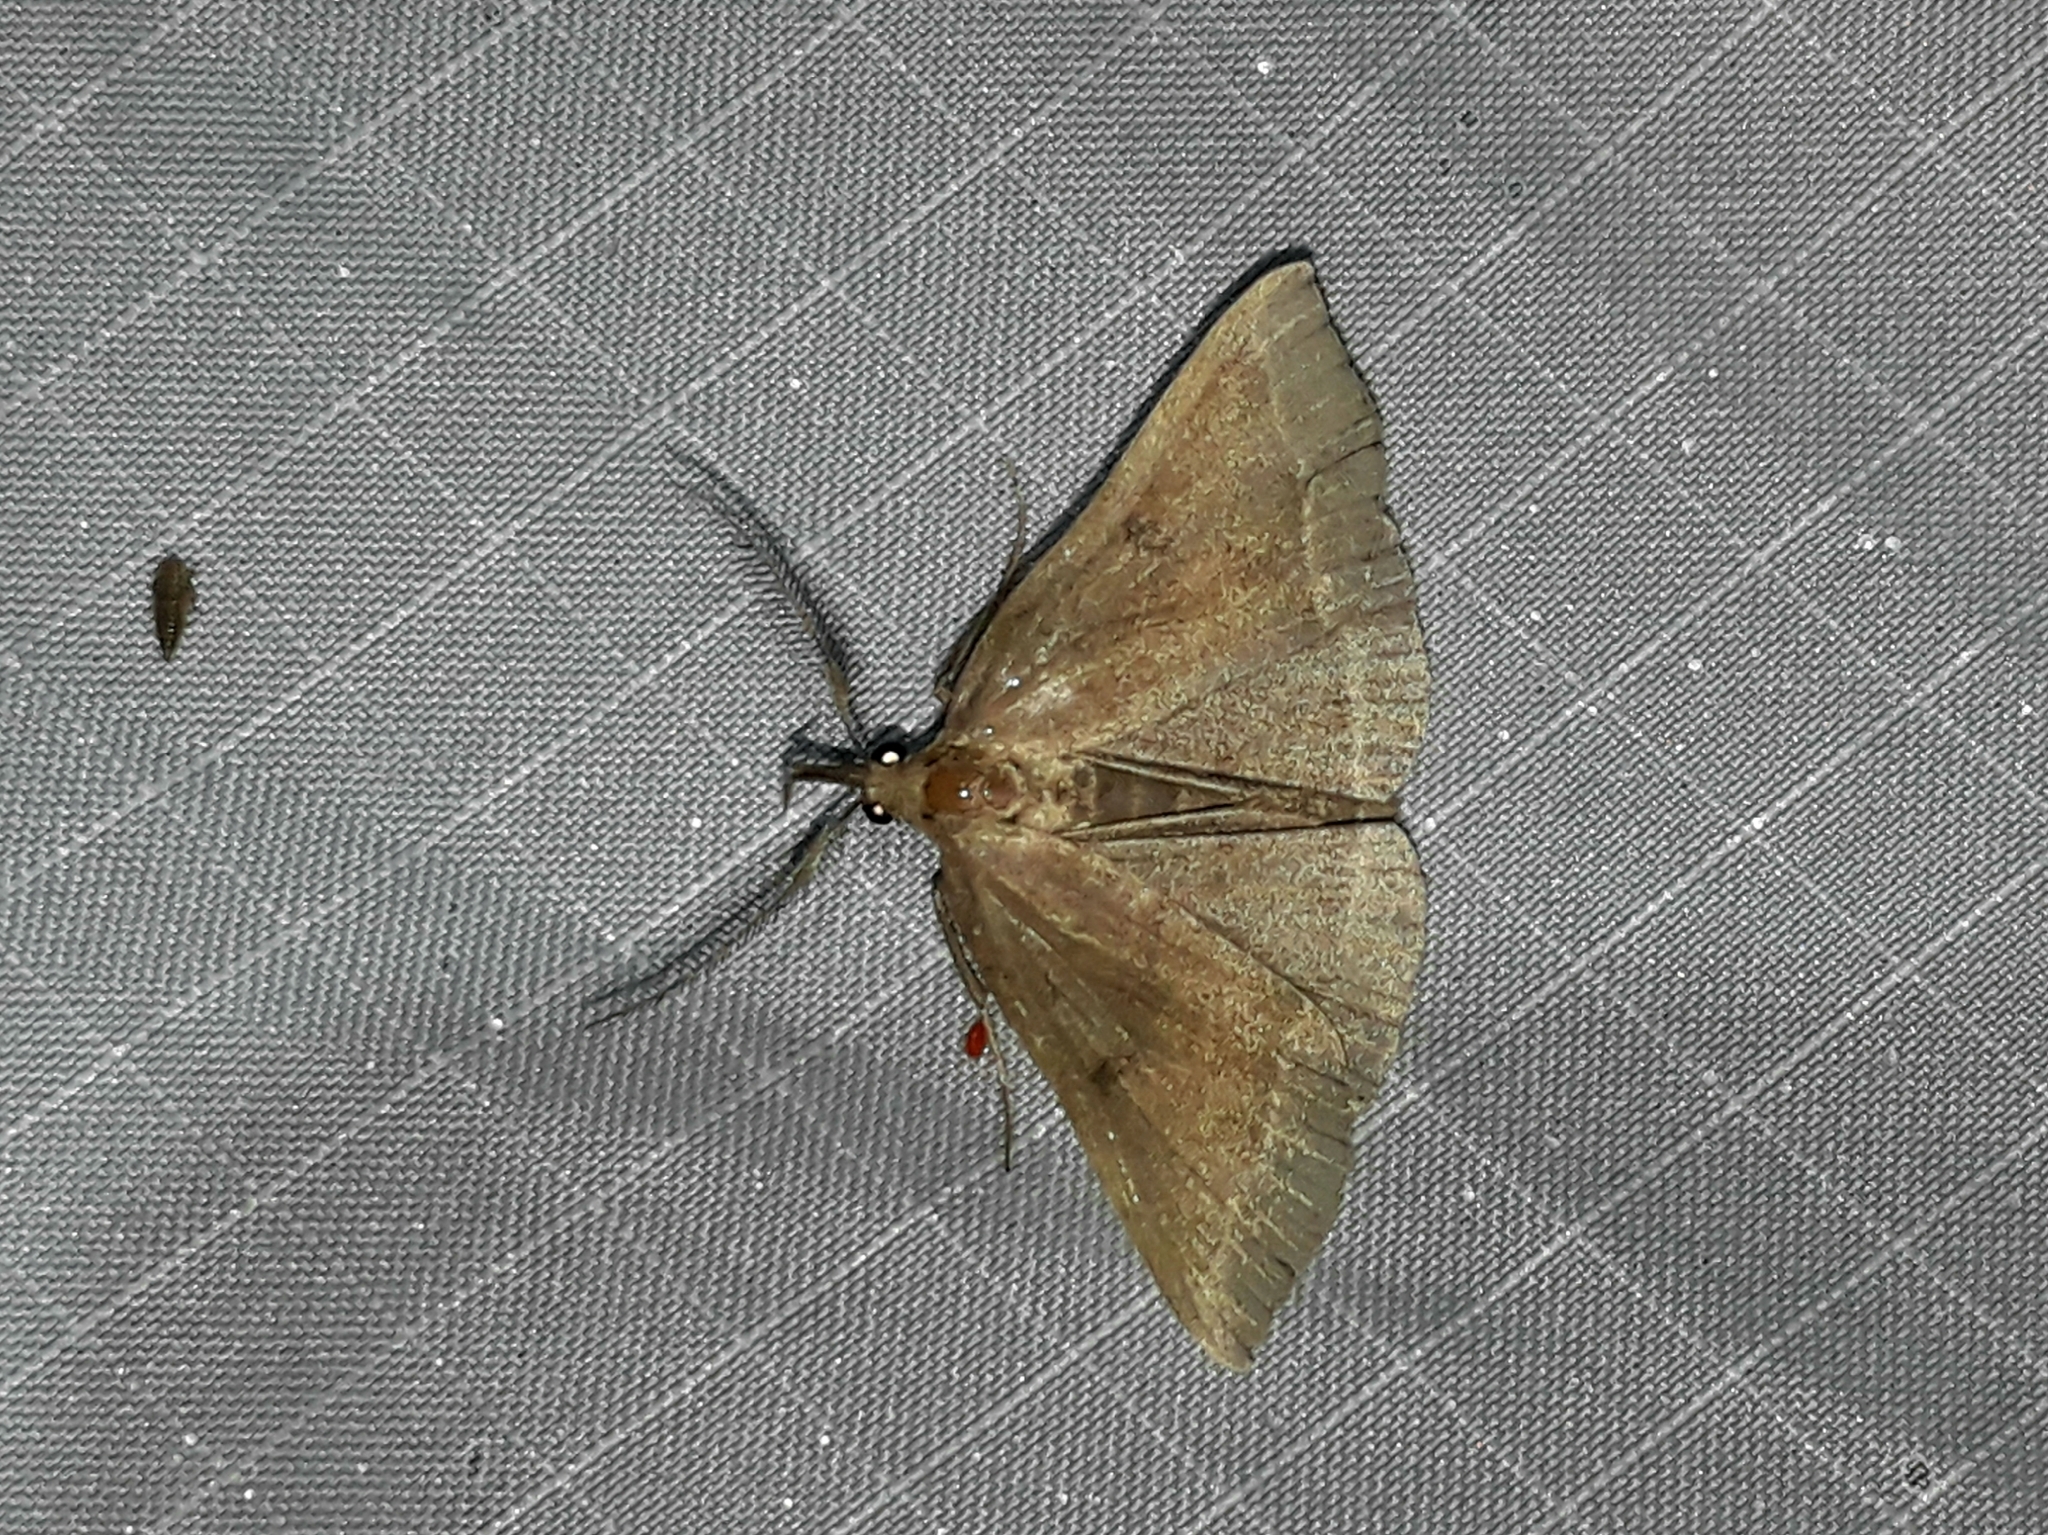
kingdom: Animalia
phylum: Arthropoda
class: Insecta
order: Lepidoptera
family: Erebidae
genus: Pechipogo
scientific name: Pechipogo plumigeralis
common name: Plumed fan-foot
